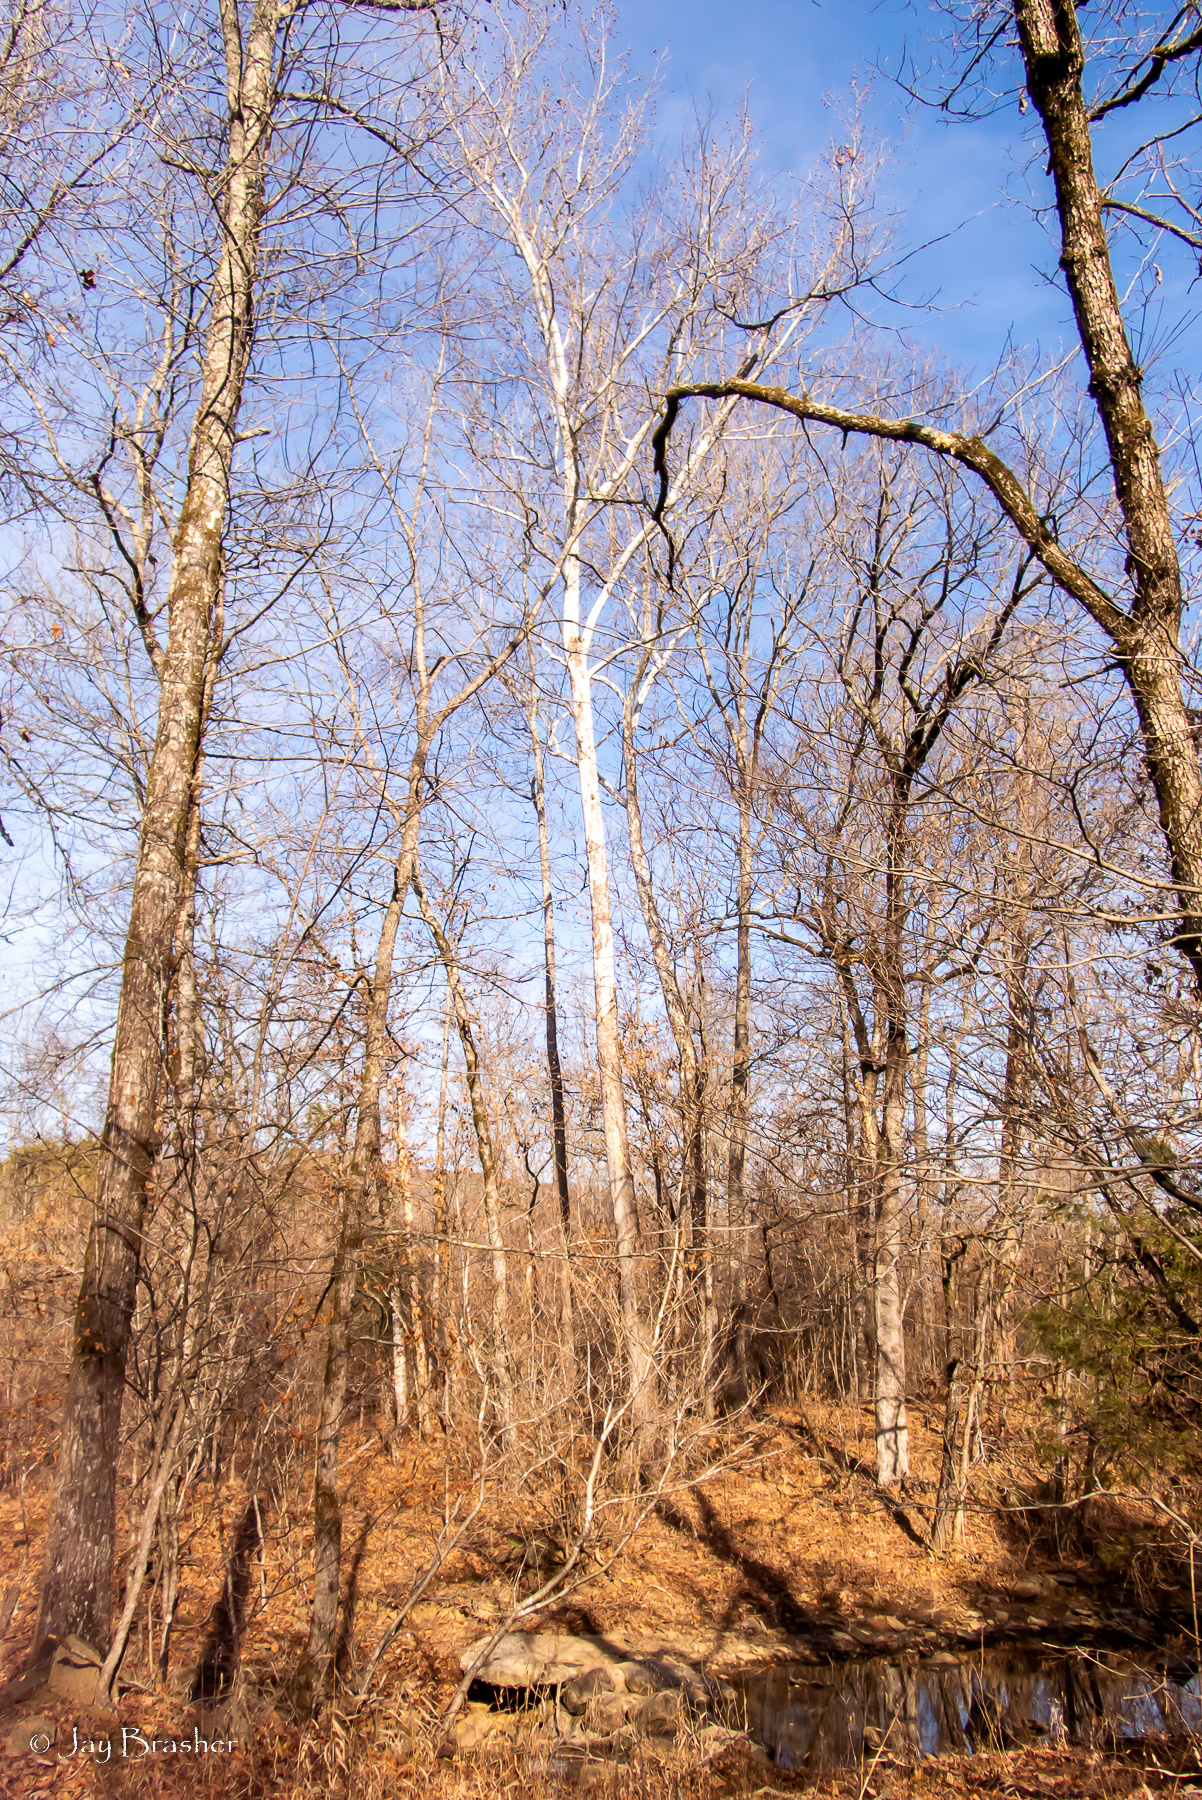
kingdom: Plantae
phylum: Tracheophyta
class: Magnoliopsida
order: Proteales
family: Platanaceae
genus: Platanus
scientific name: Platanus occidentalis
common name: American sycamore
